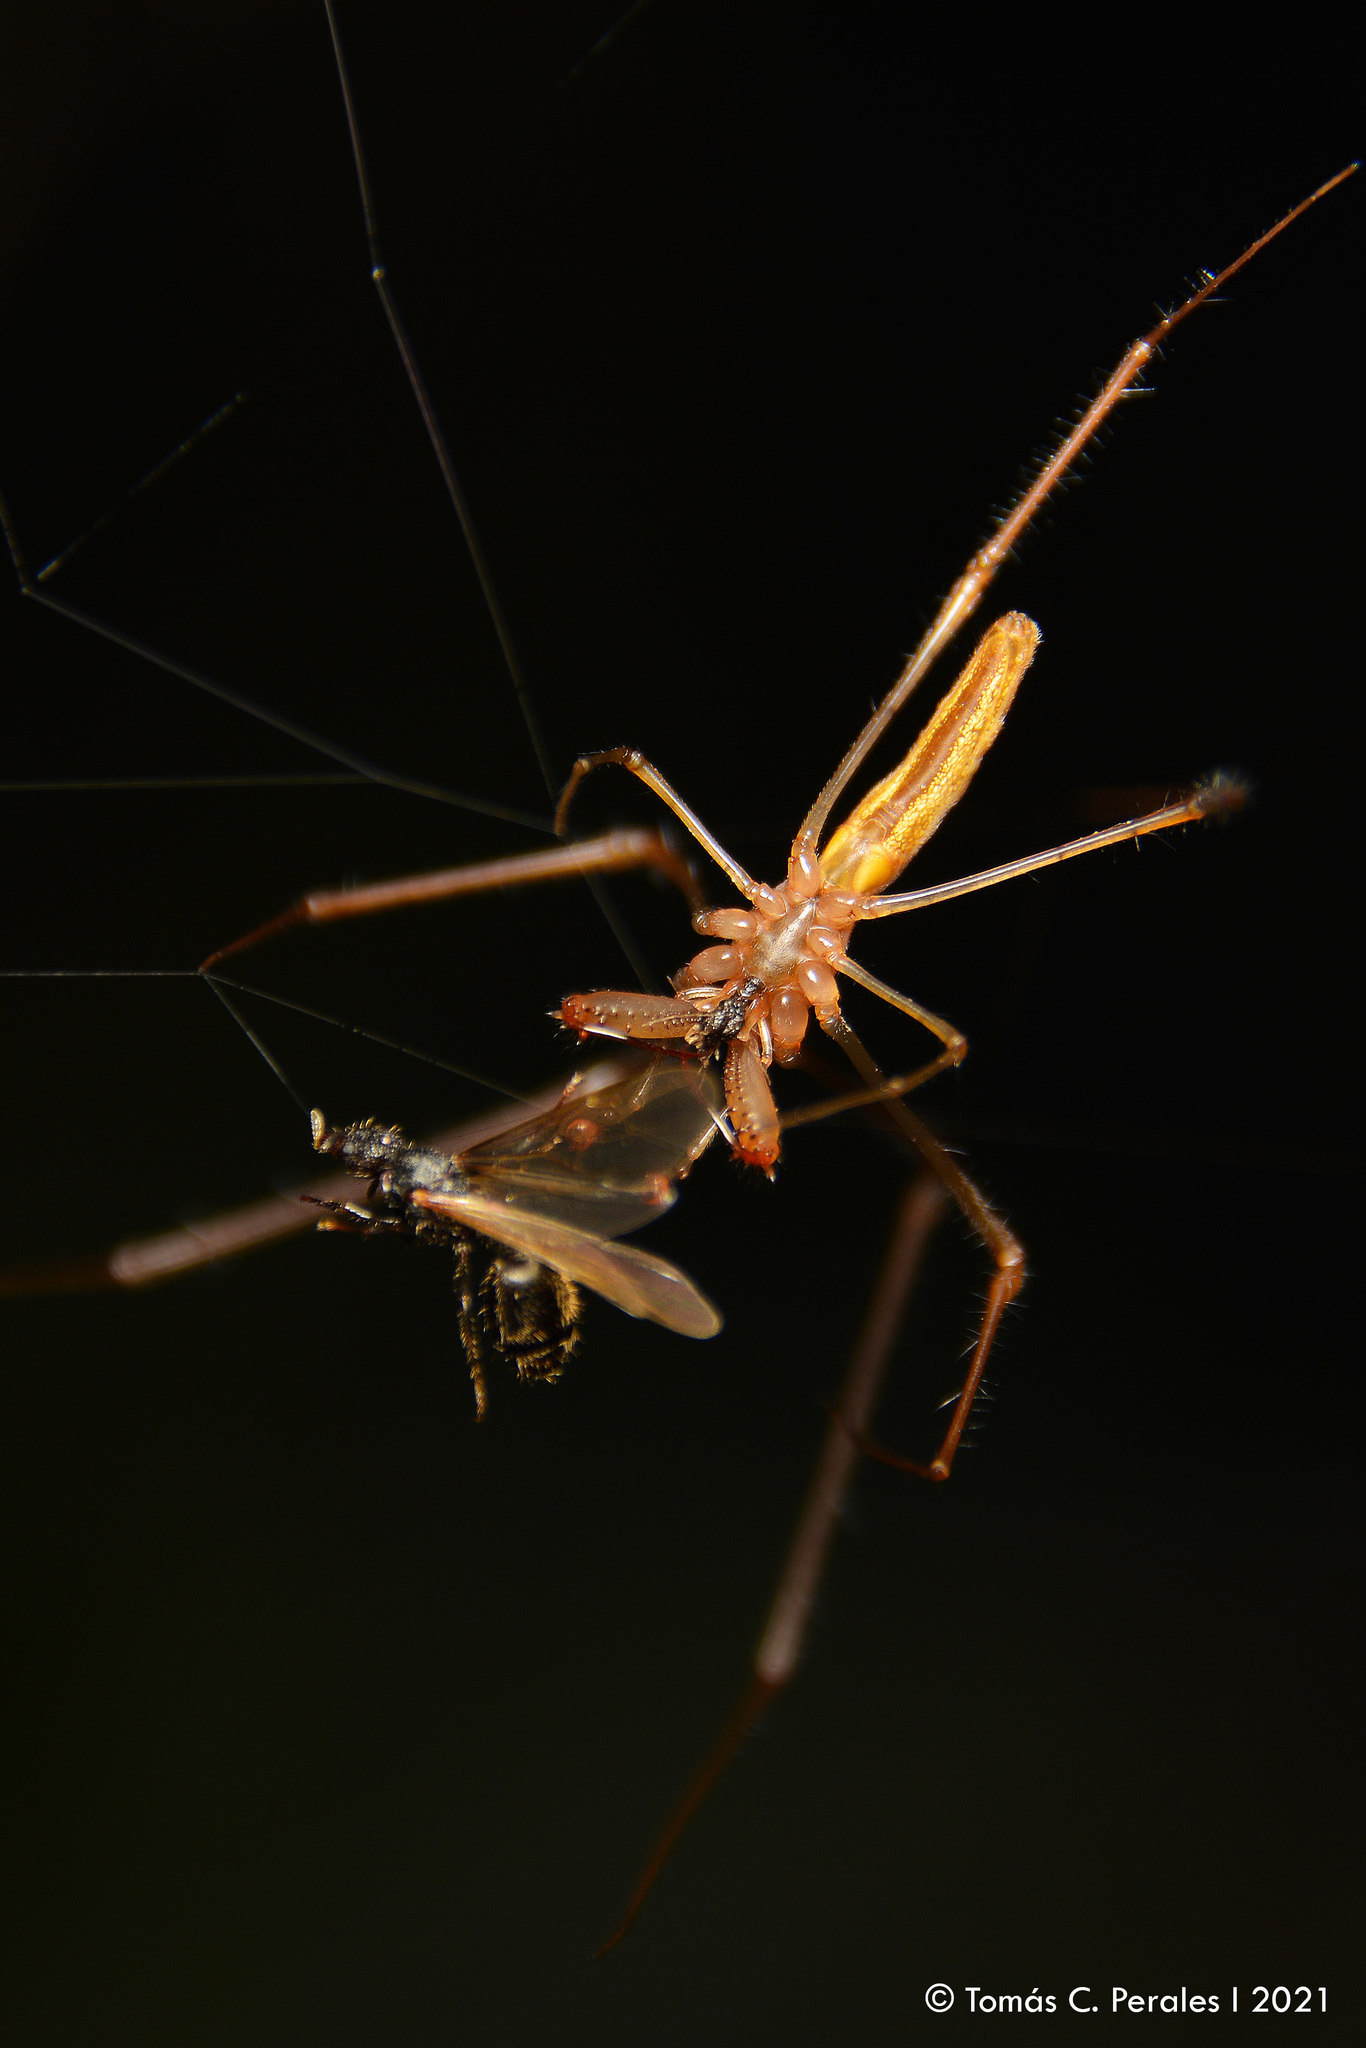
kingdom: Animalia
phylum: Arthropoda
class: Arachnida
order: Araneae
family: Tetragnathidae
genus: Tetragnatha
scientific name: Tetragnatha
